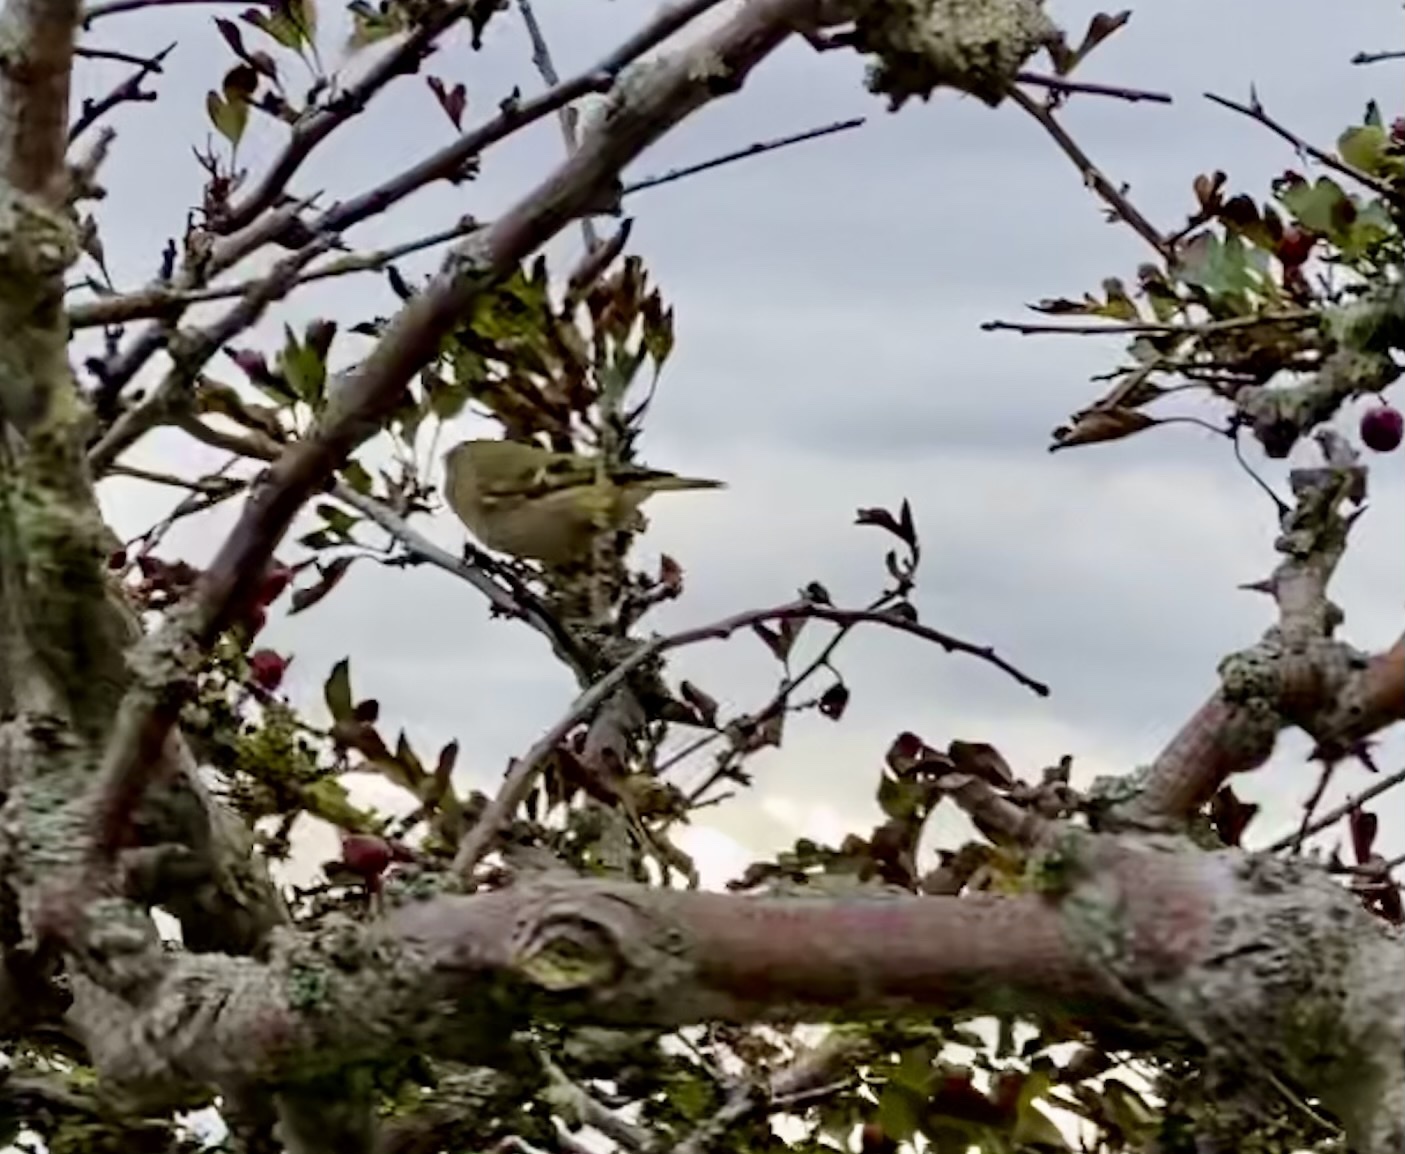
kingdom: Animalia
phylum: Chordata
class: Aves
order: Passeriformes
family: Regulidae
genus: Regulus
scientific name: Regulus regulus
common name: Goldcrest
